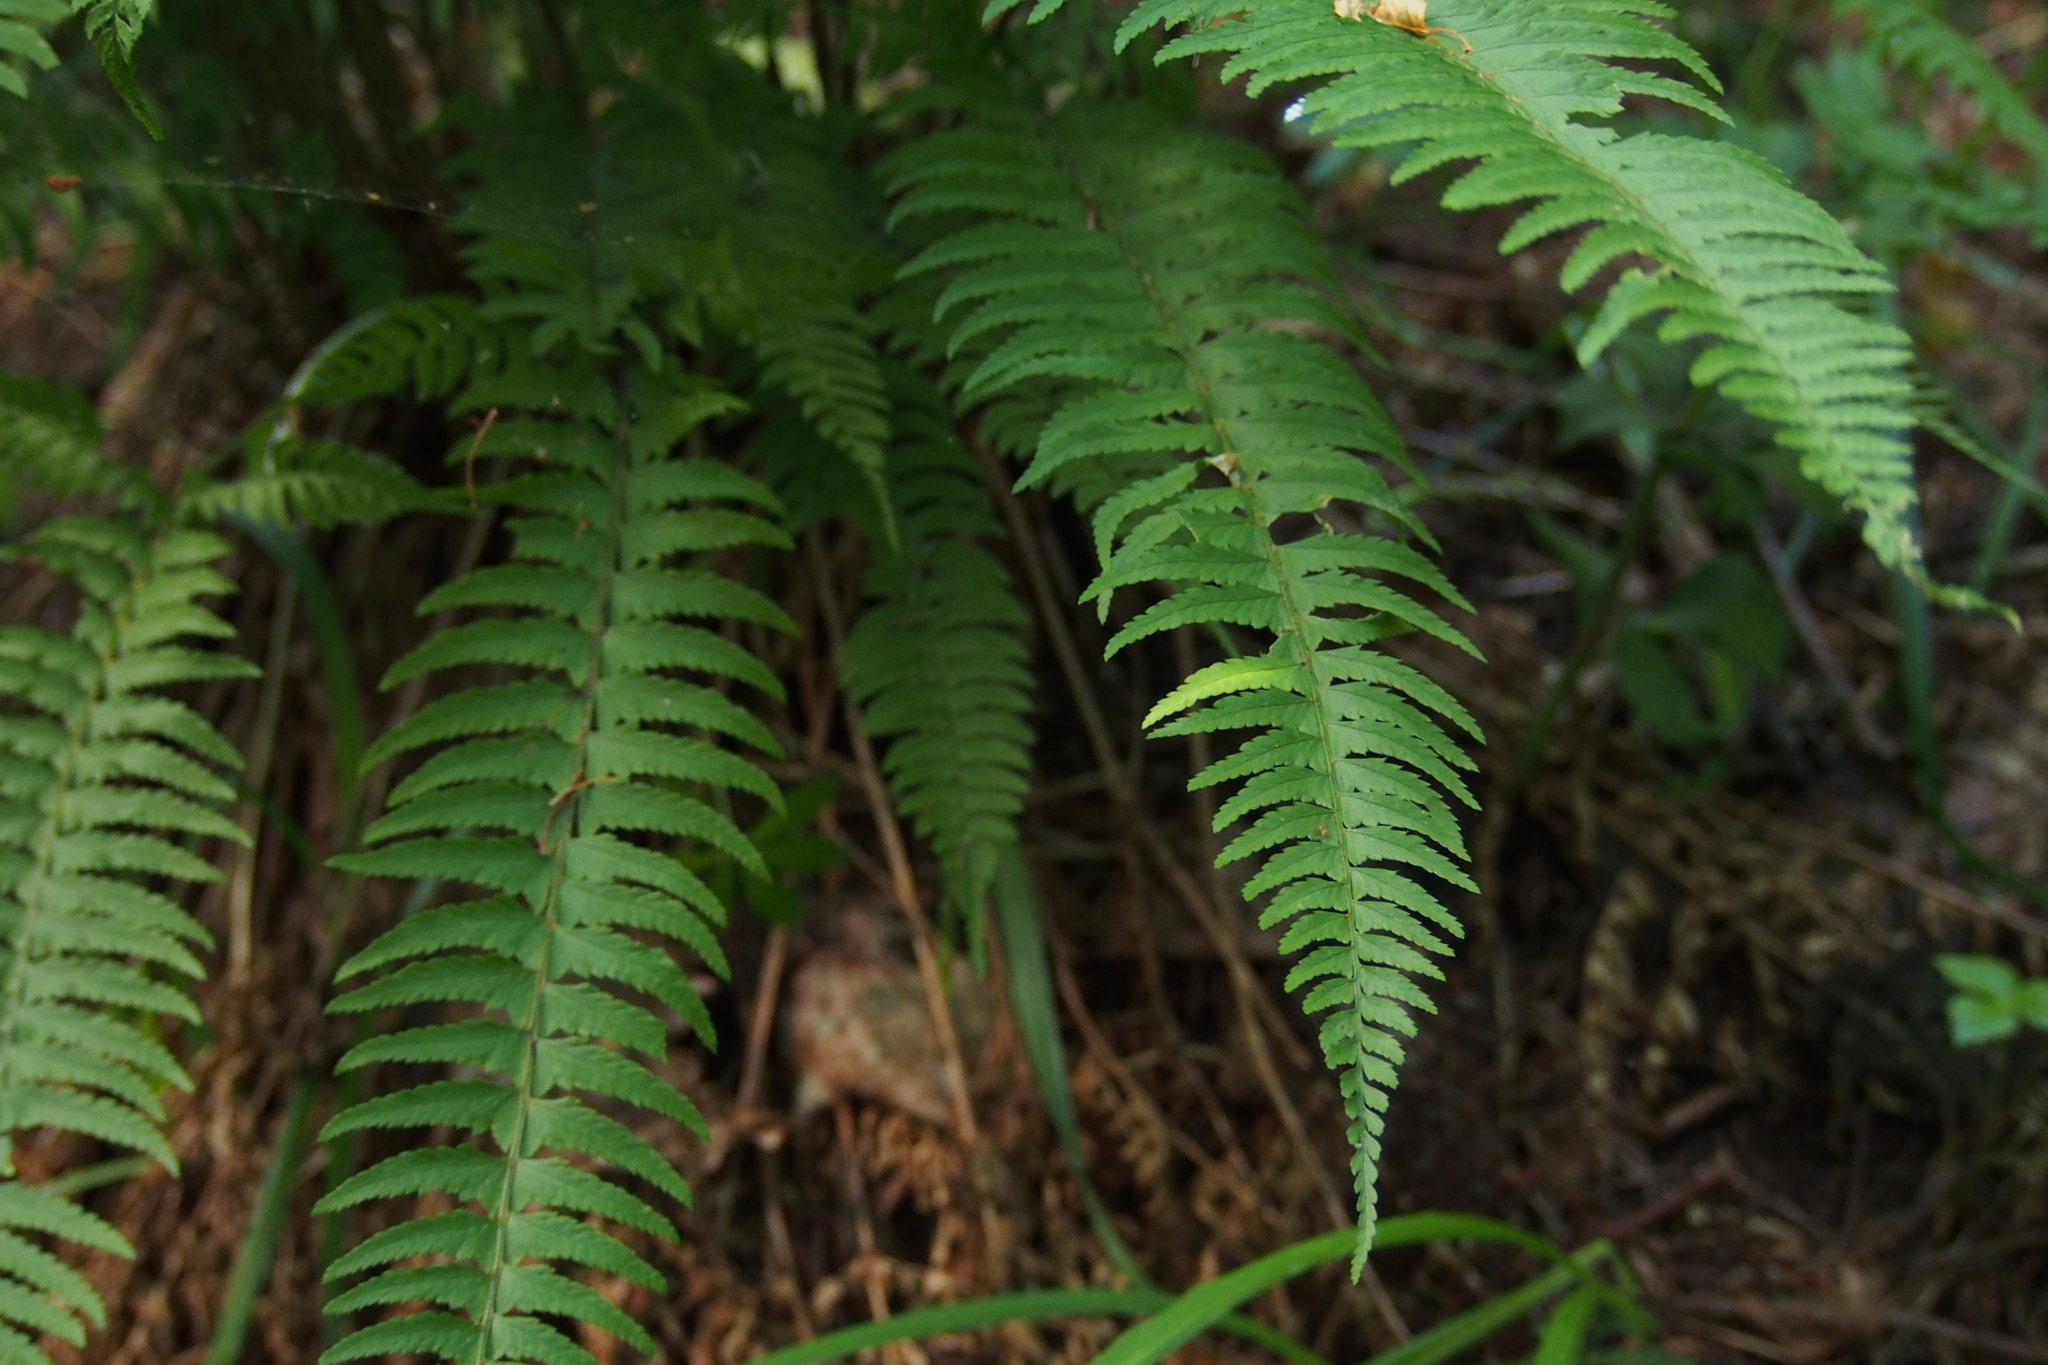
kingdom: Plantae
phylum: Tracheophyta
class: Polypodiopsida
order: Polypodiales
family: Dryopteridaceae
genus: Polystichum
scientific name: Polystichum tripteron
